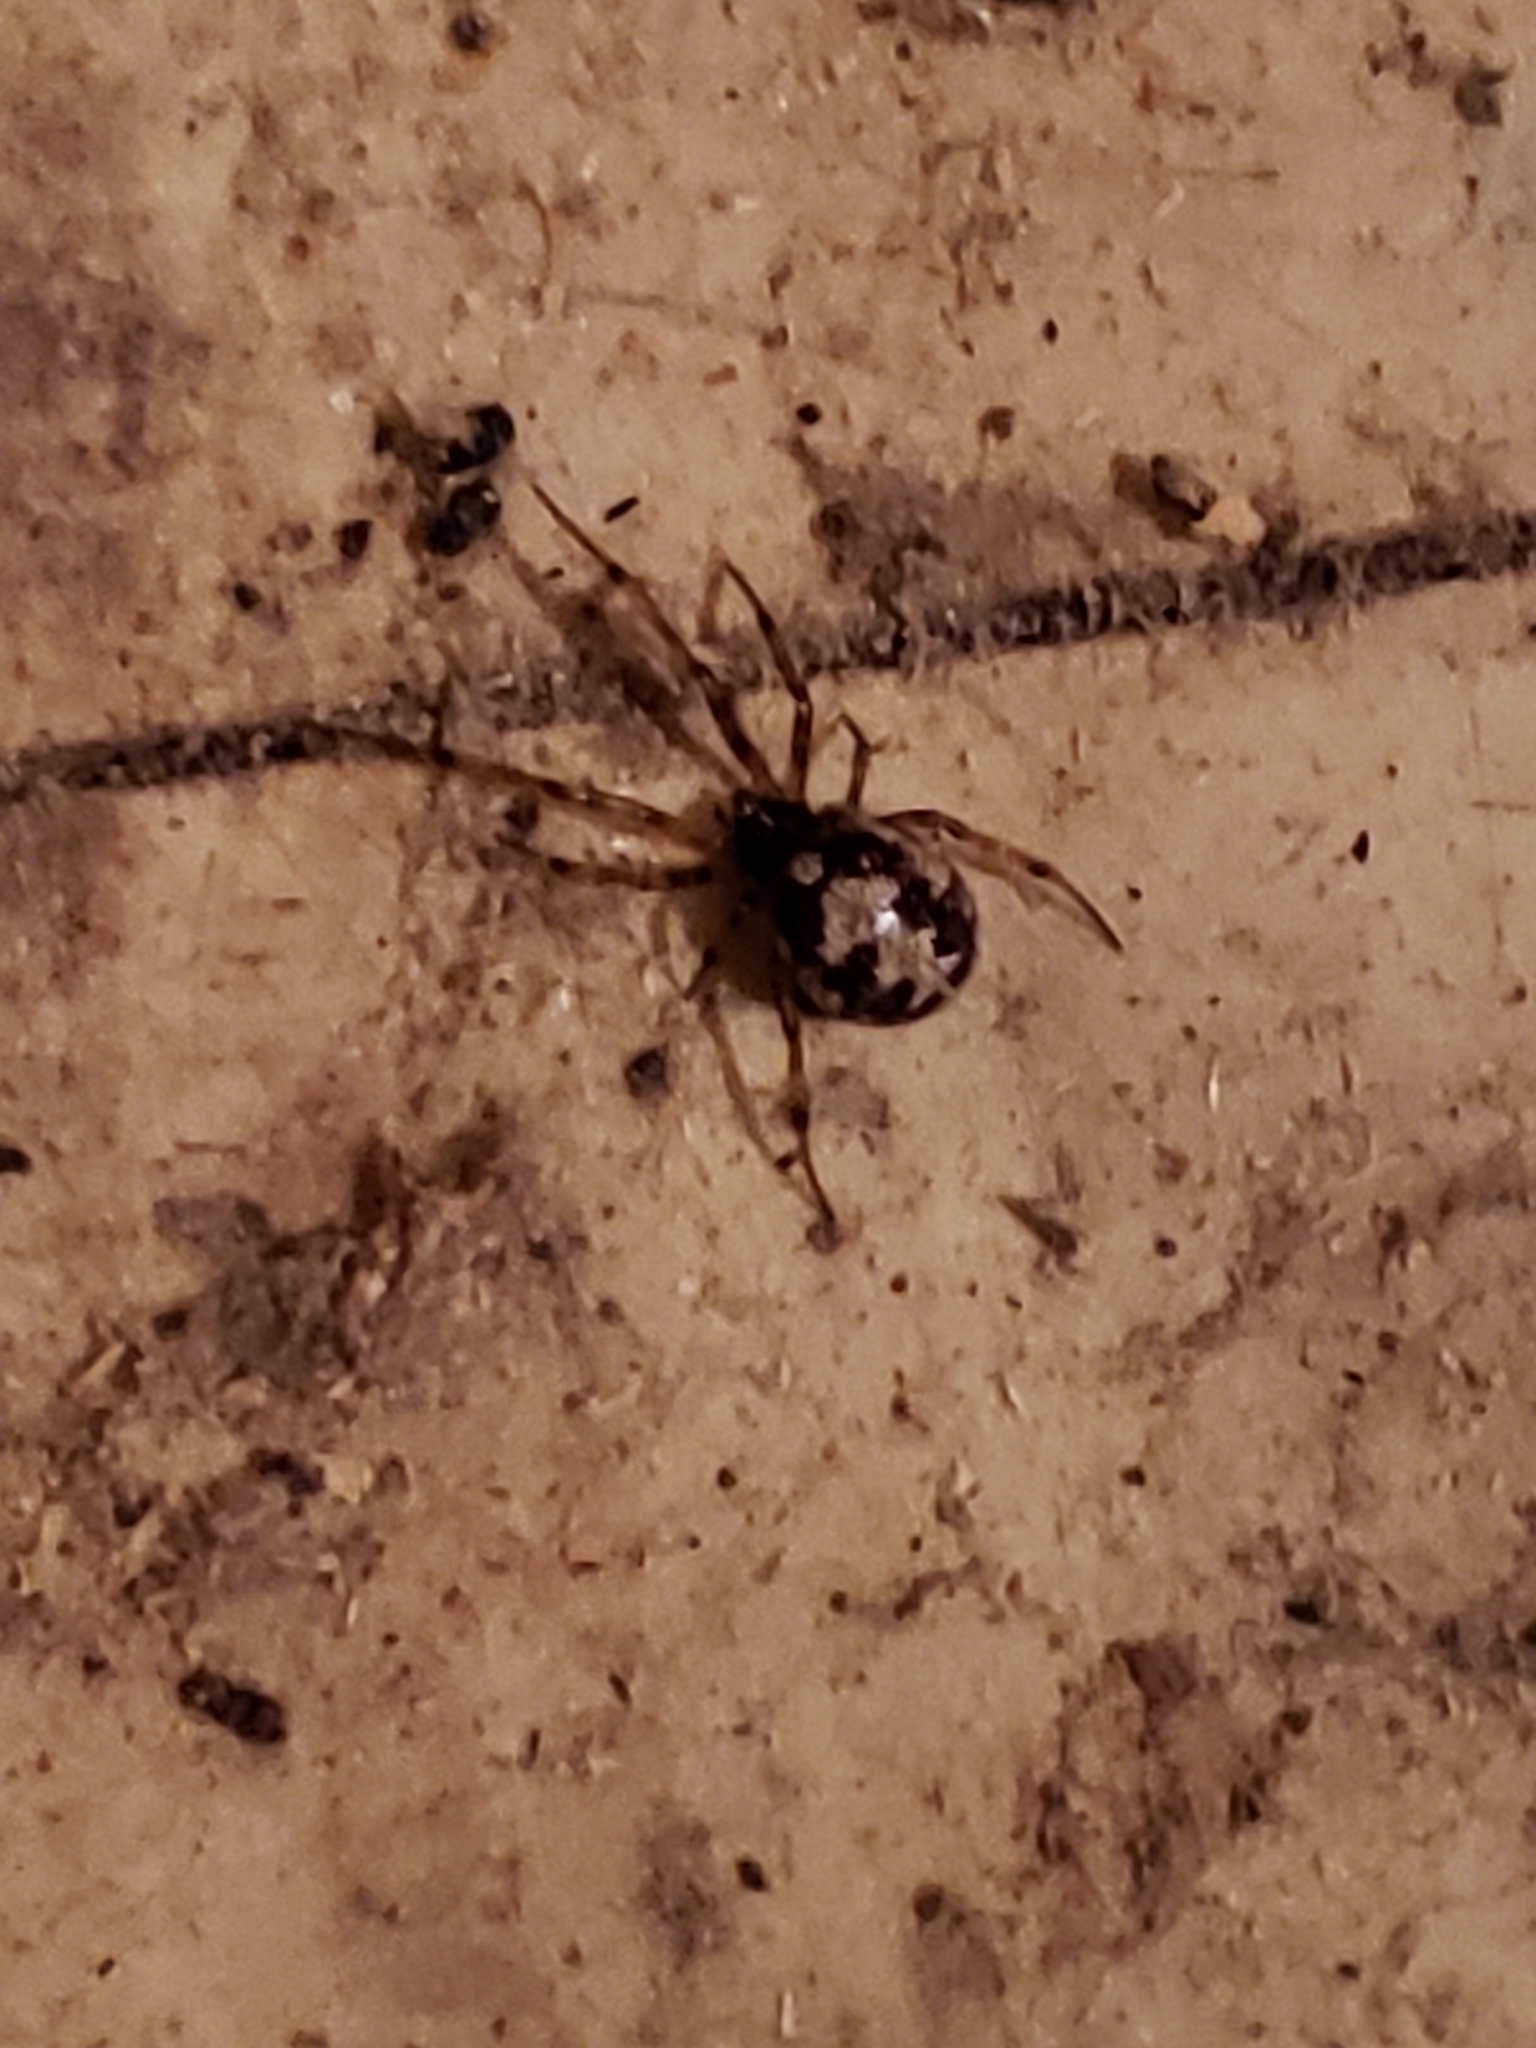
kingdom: Animalia
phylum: Arthropoda
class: Arachnida
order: Araneae
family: Theridiidae
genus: Steatoda
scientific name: Steatoda triangulosa
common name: Triangulate bud spider
